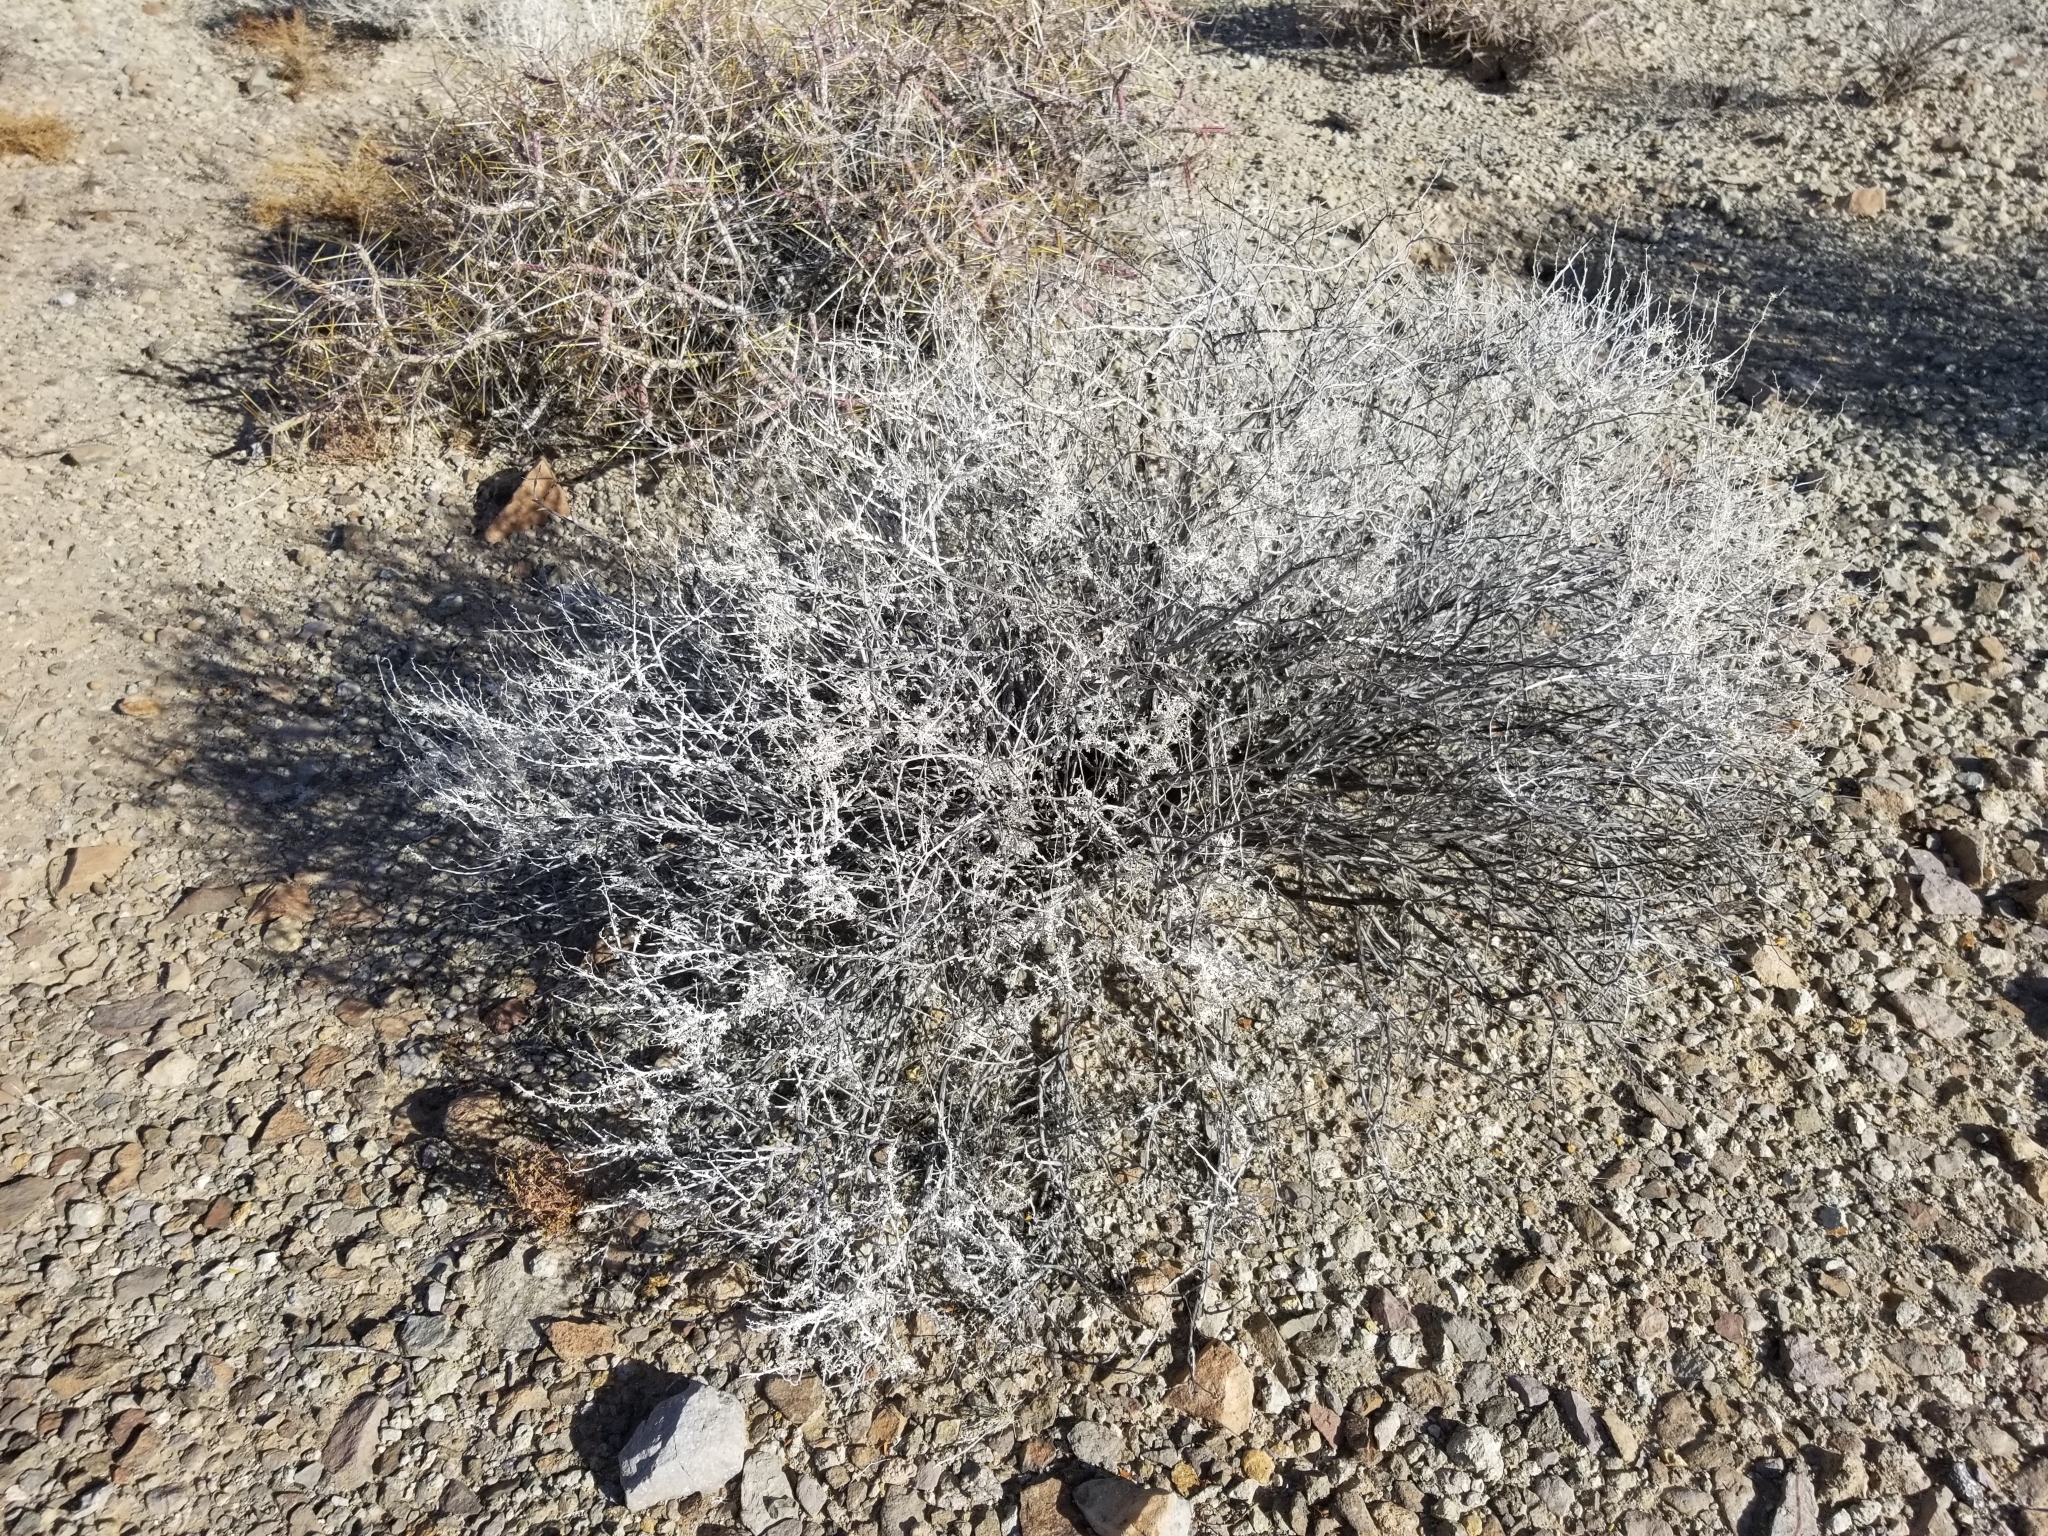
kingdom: Plantae
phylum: Tracheophyta
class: Magnoliopsida
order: Asterales
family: Asteraceae
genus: Ambrosia
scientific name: Ambrosia dumosa
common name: Bur-sage
